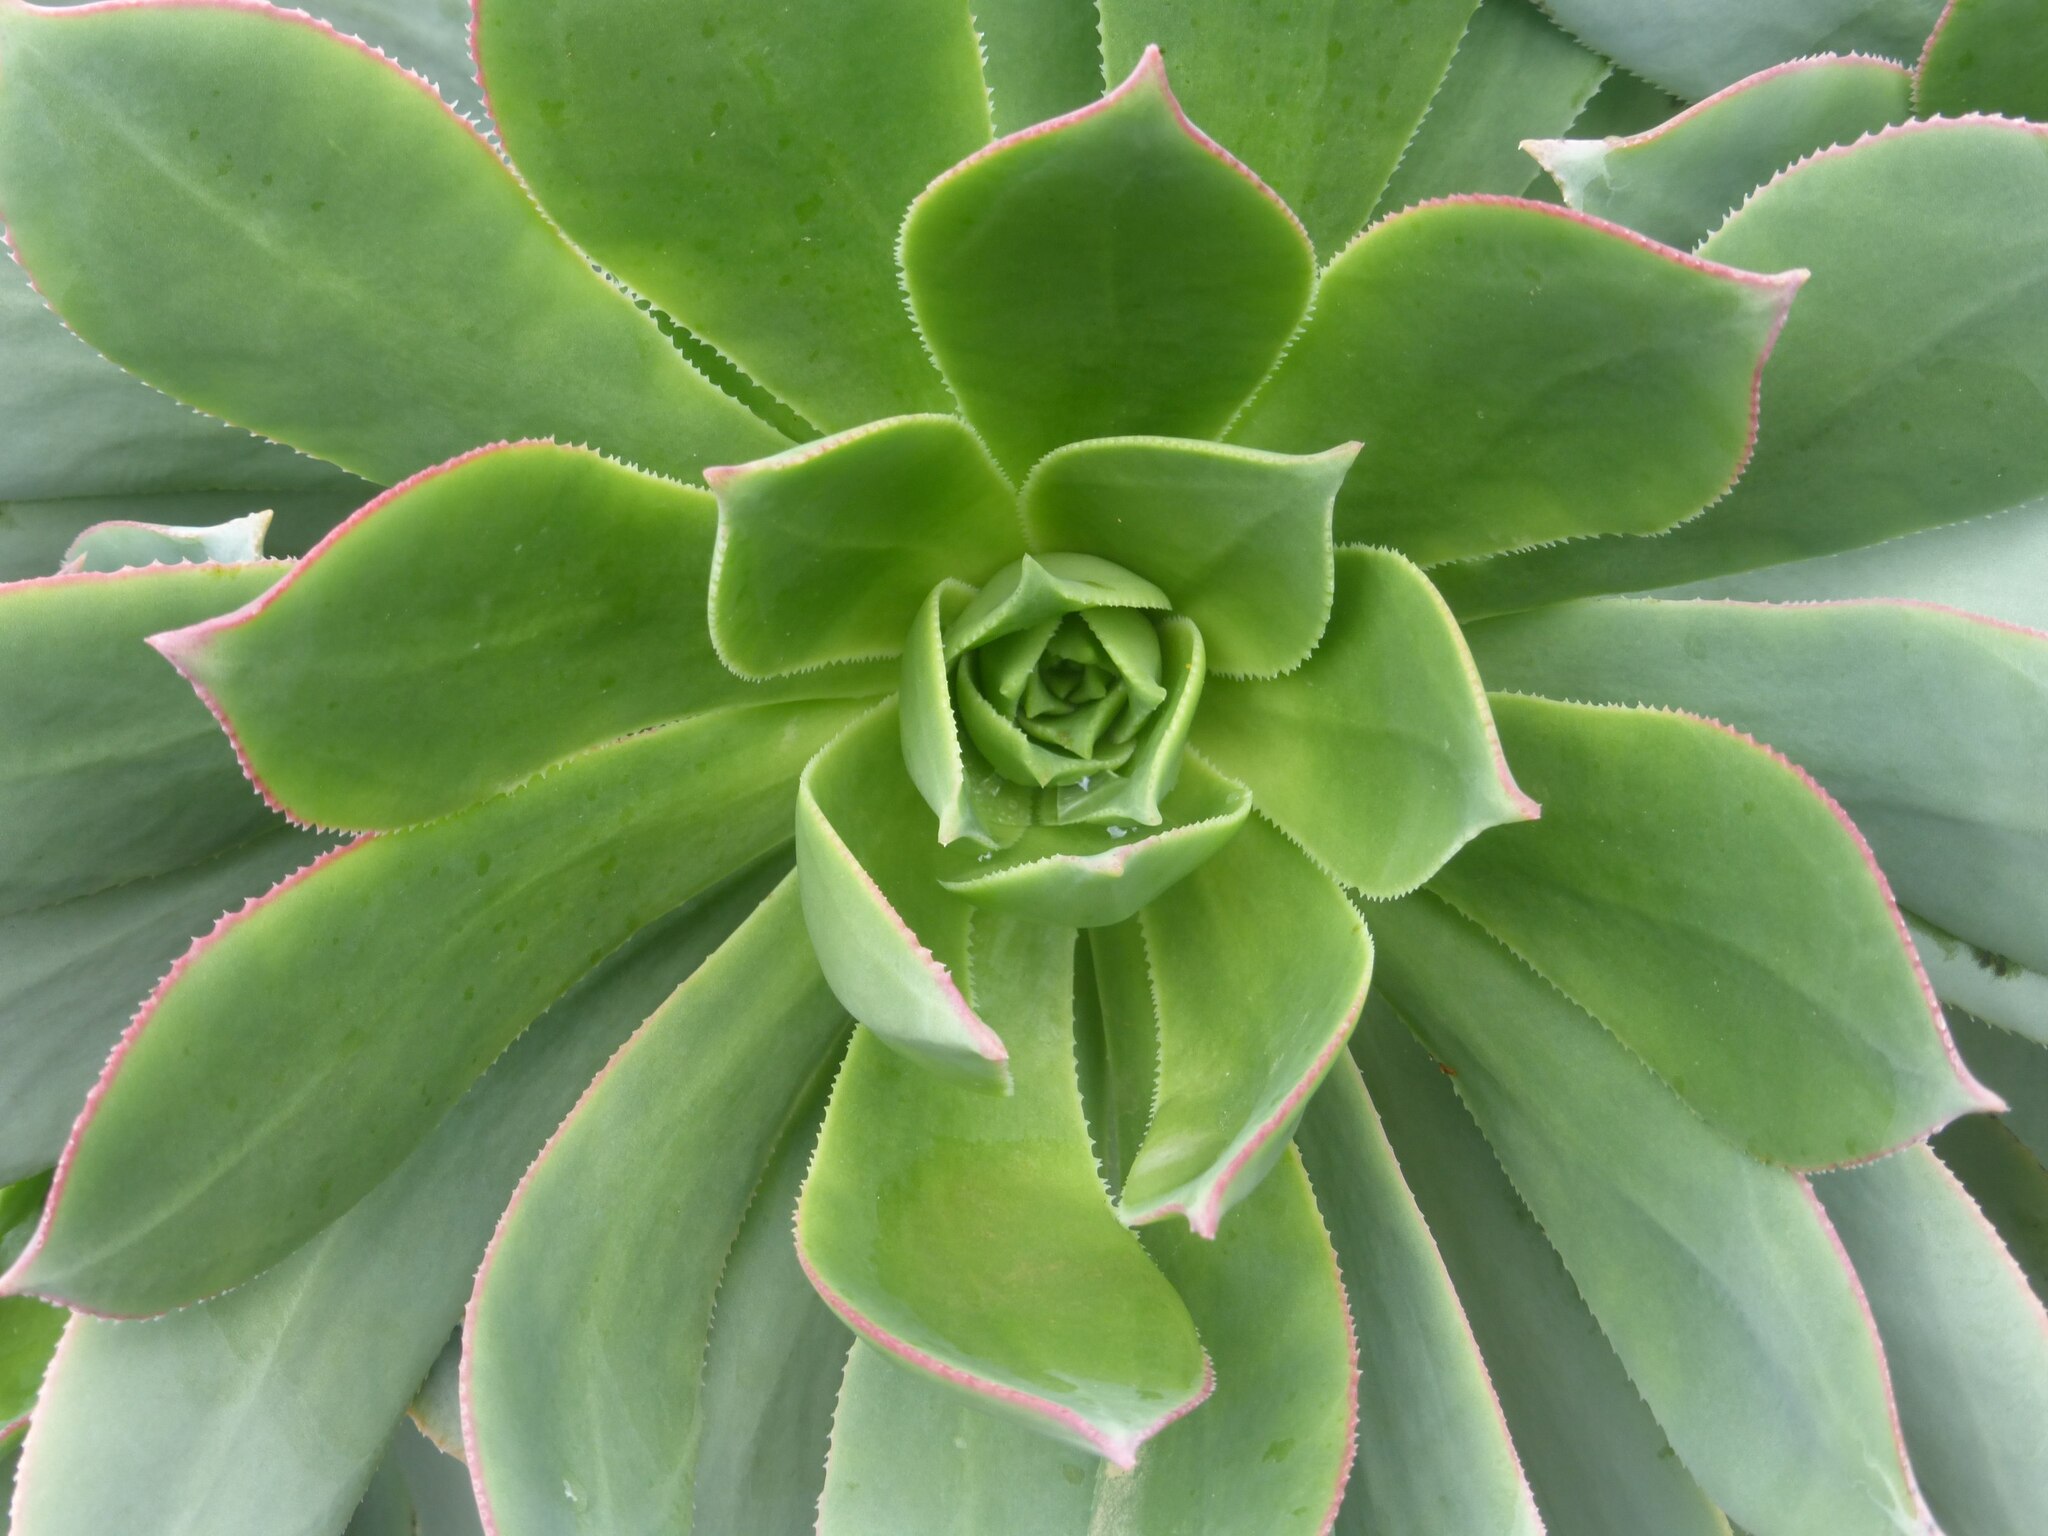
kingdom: Plantae
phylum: Tracheophyta
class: Magnoliopsida
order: Saxifragales
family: Crassulaceae
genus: Aeonium
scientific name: Aeonium percarneum
